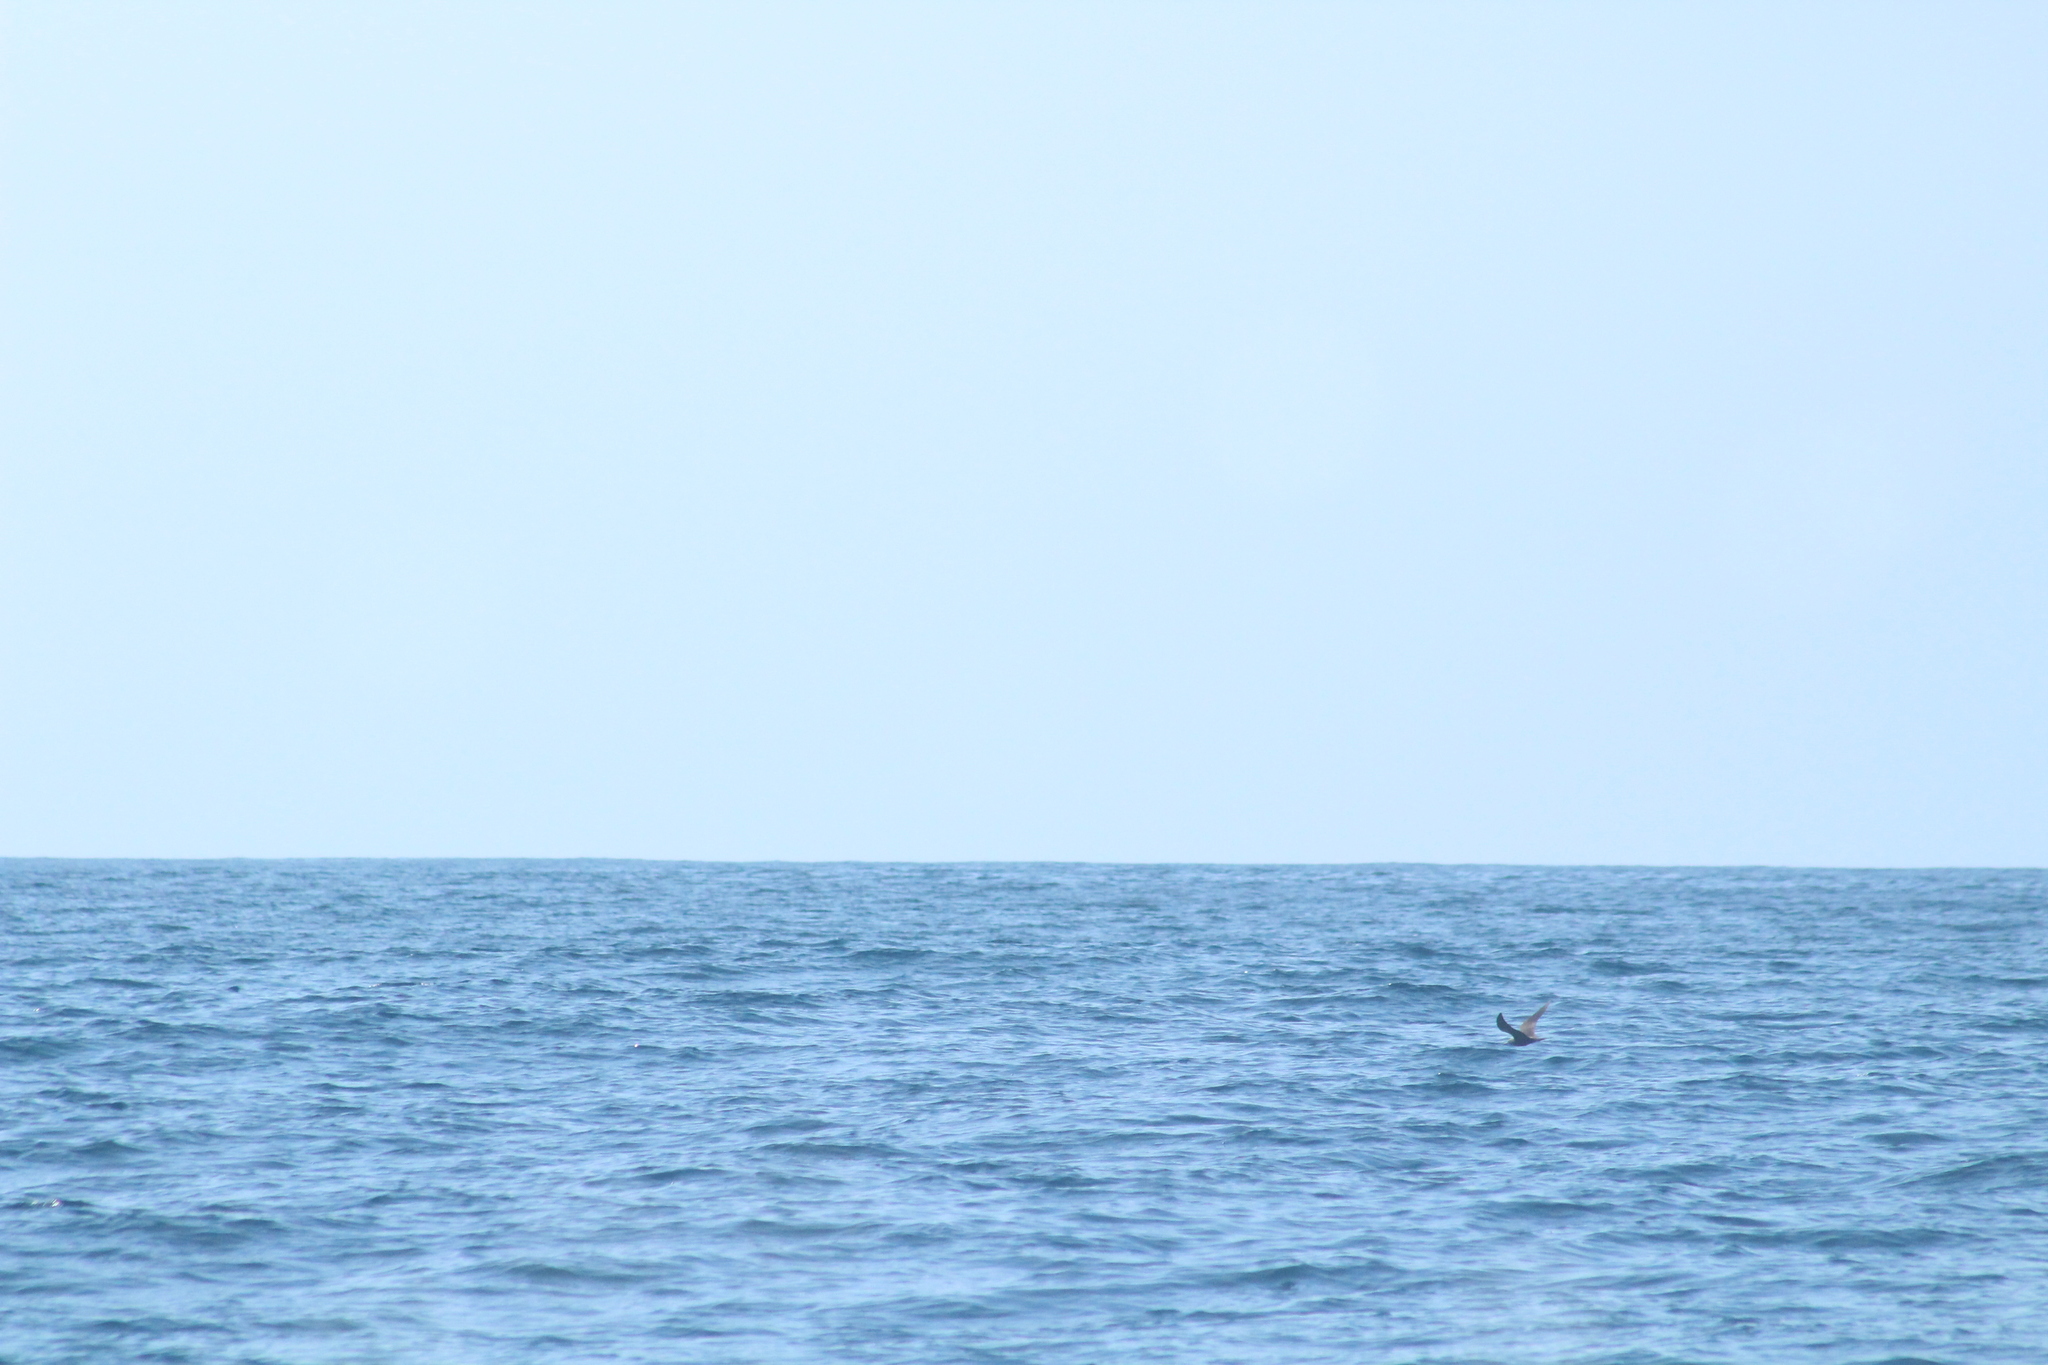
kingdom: Animalia
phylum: Chordata
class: Aves
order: Charadriiformes
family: Laridae
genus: Anous
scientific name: Anous stolidus
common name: Brown noddy
